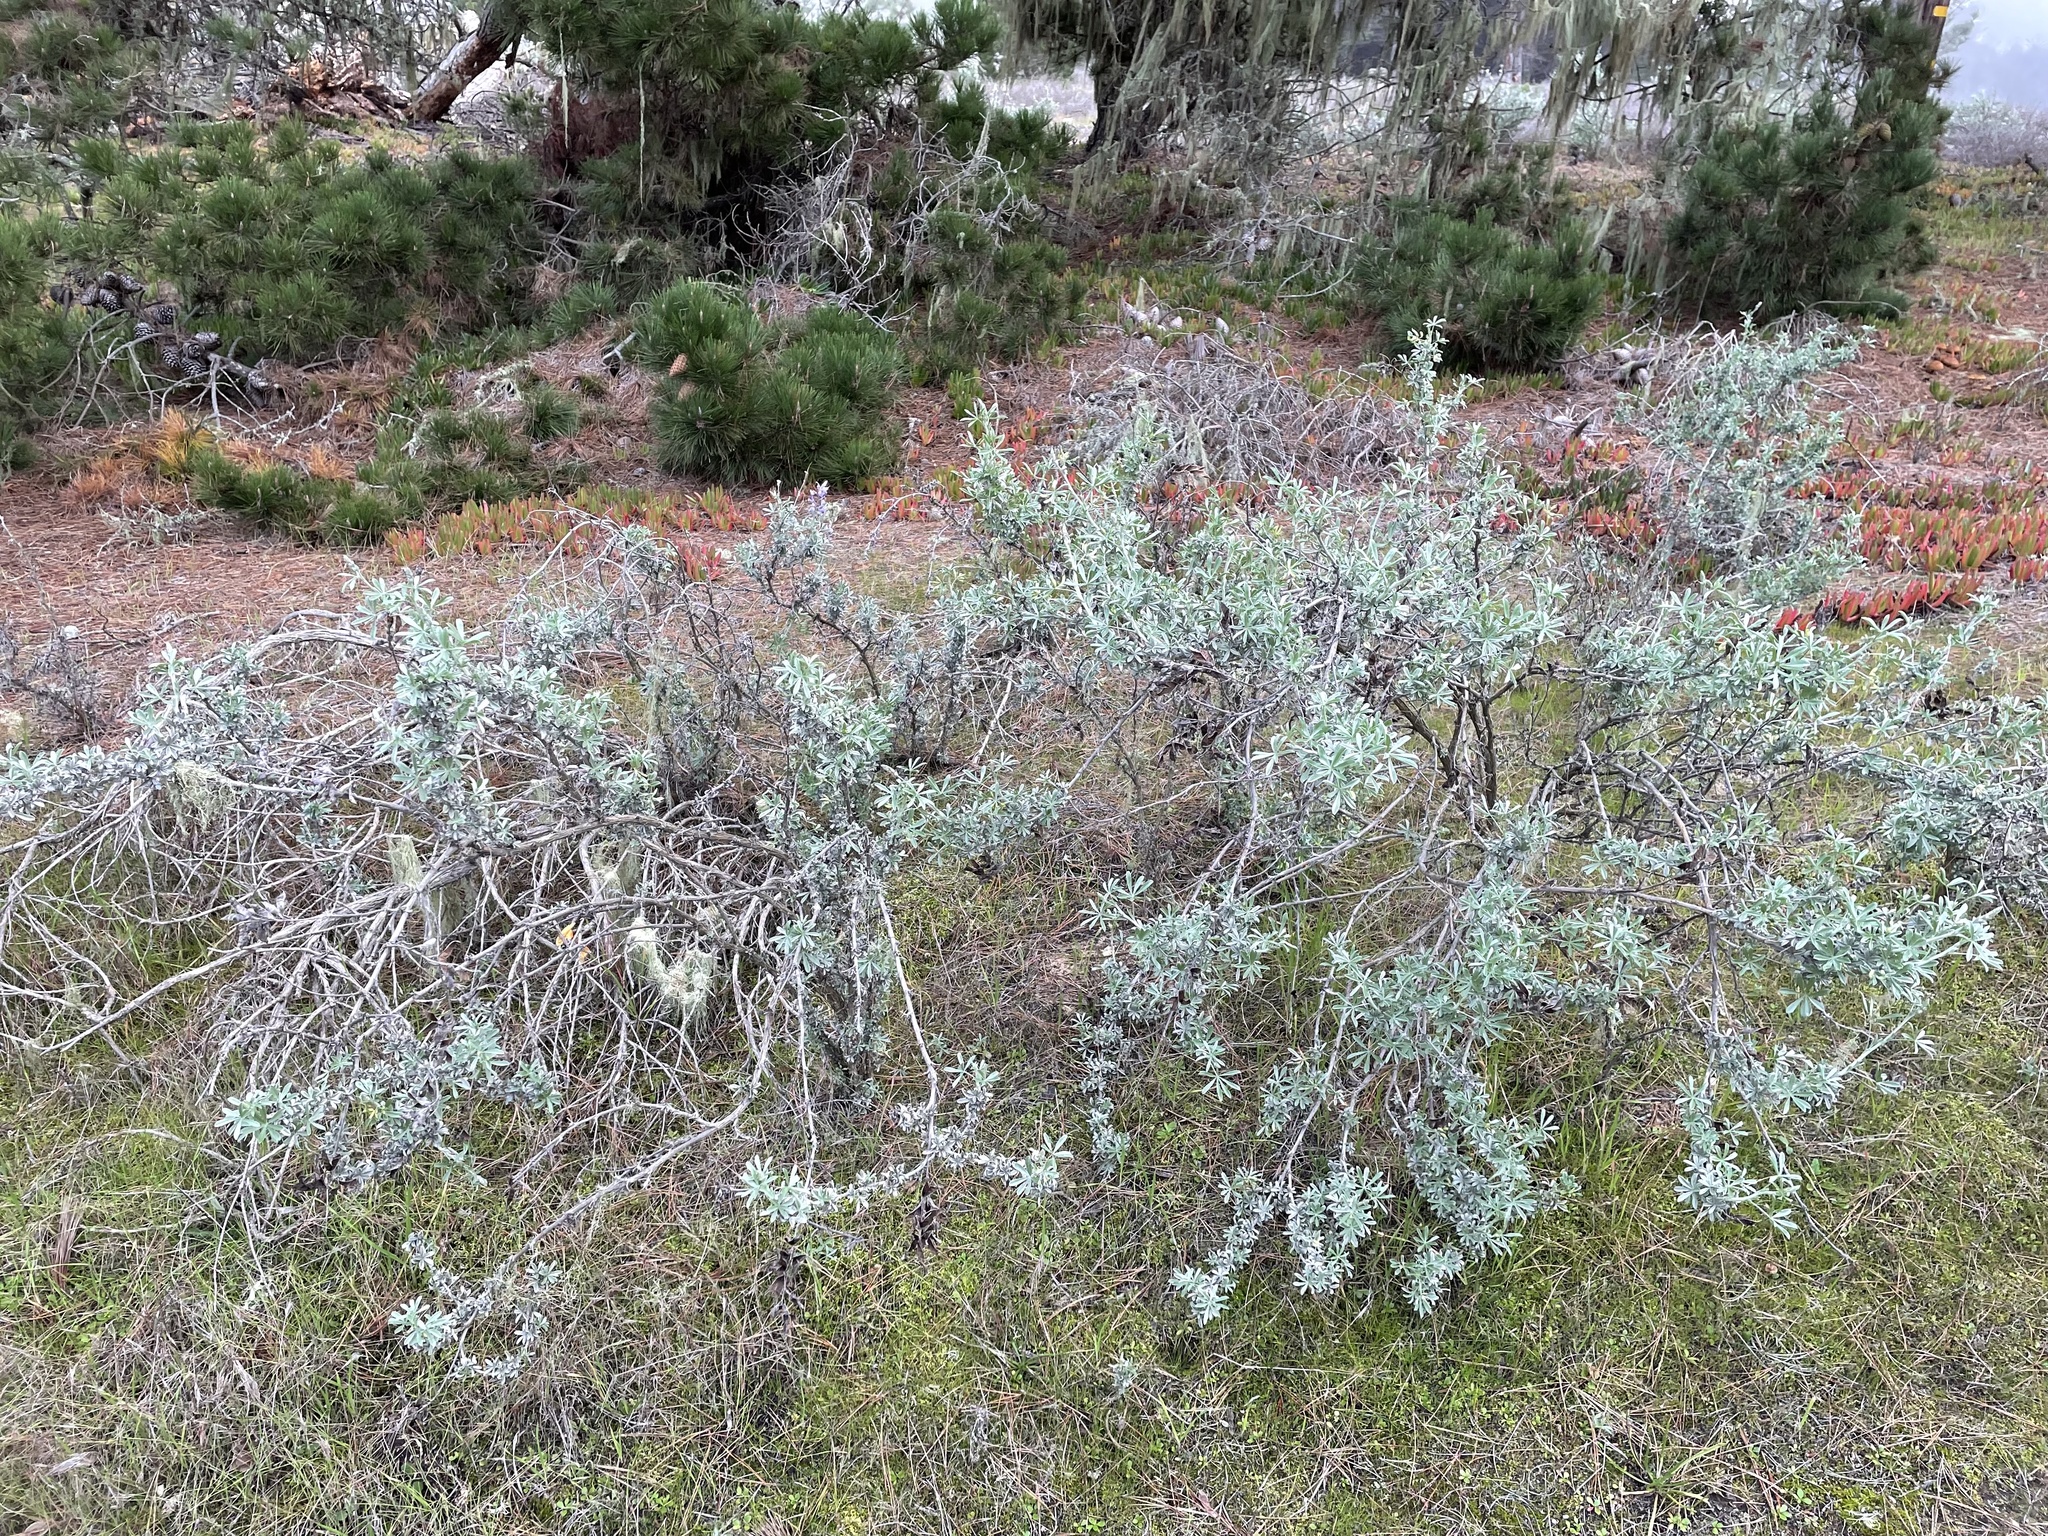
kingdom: Plantae
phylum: Tracheophyta
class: Magnoliopsida
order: Fabales
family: Fabaceae
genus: Lupinus
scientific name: Lupinus chamissonis
